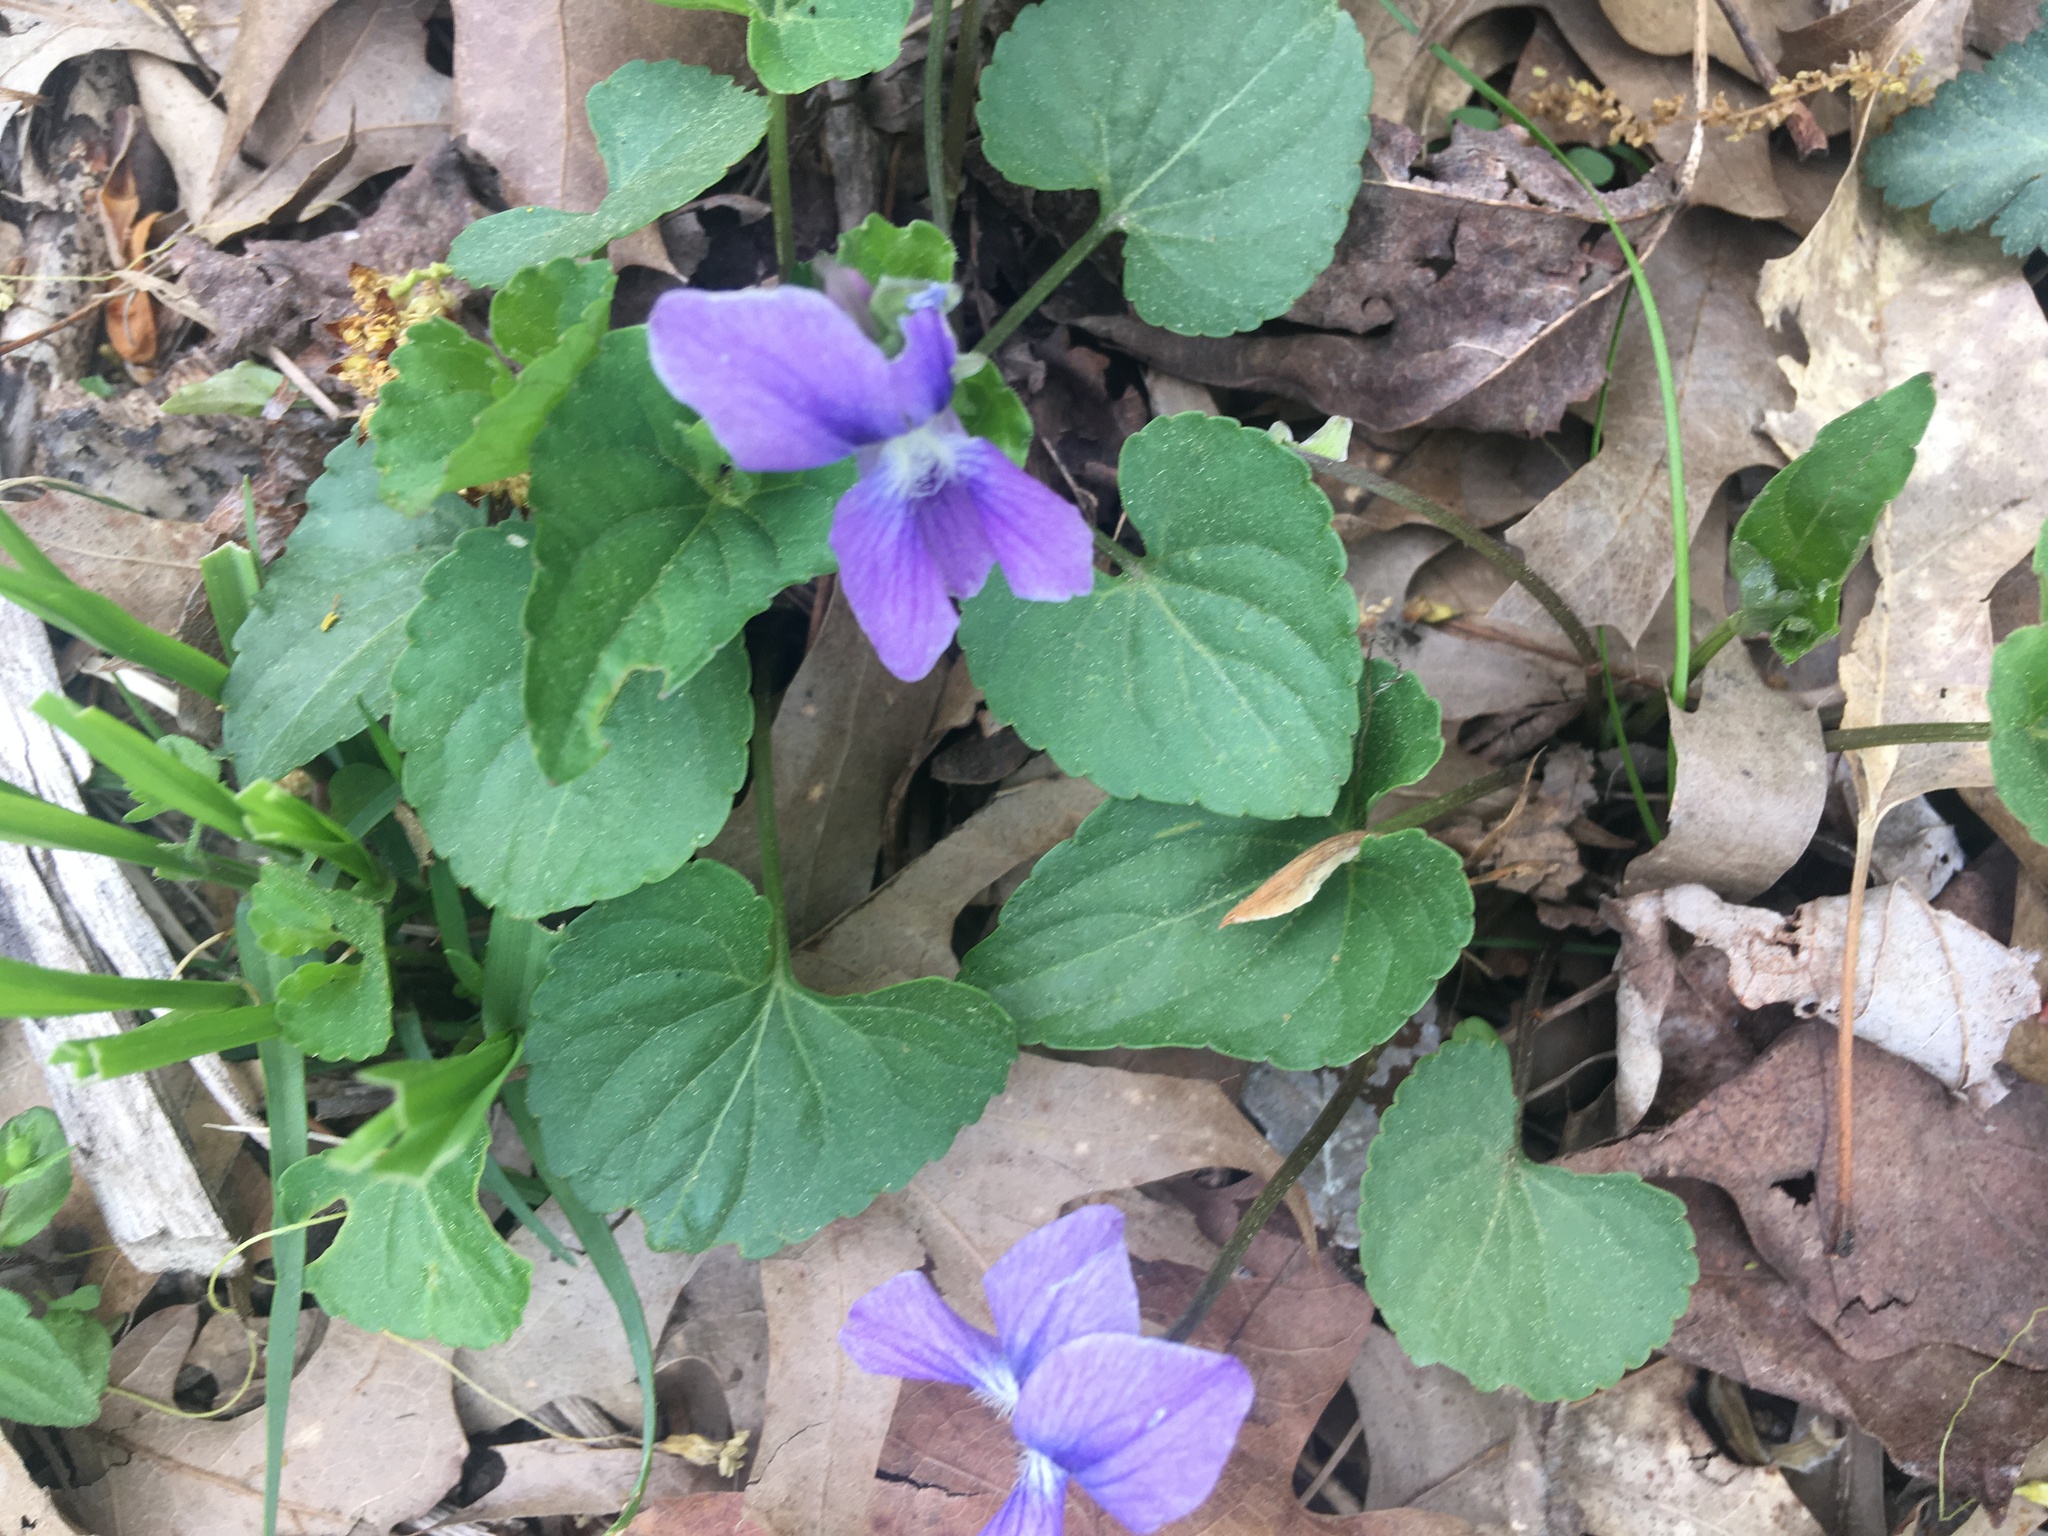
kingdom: Plantae
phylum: Tracheophyta
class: Magnoliopsida
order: Malpighiales
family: Violaceae
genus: Viola
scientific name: Viola sororia
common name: Dooryard violet
